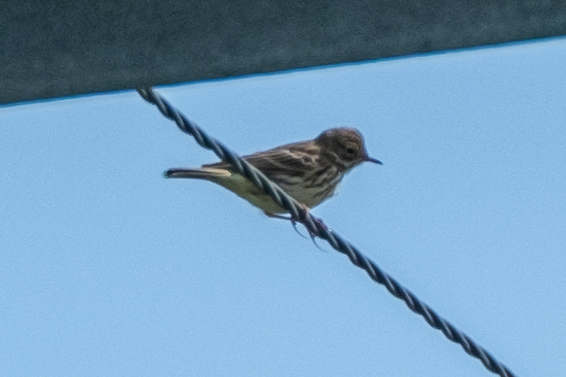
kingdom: Animalia
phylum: Chordata
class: Aves
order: Passeriformes
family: Motacillidae
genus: Anthus
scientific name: Anthus pratensis
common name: Meadow pipit
